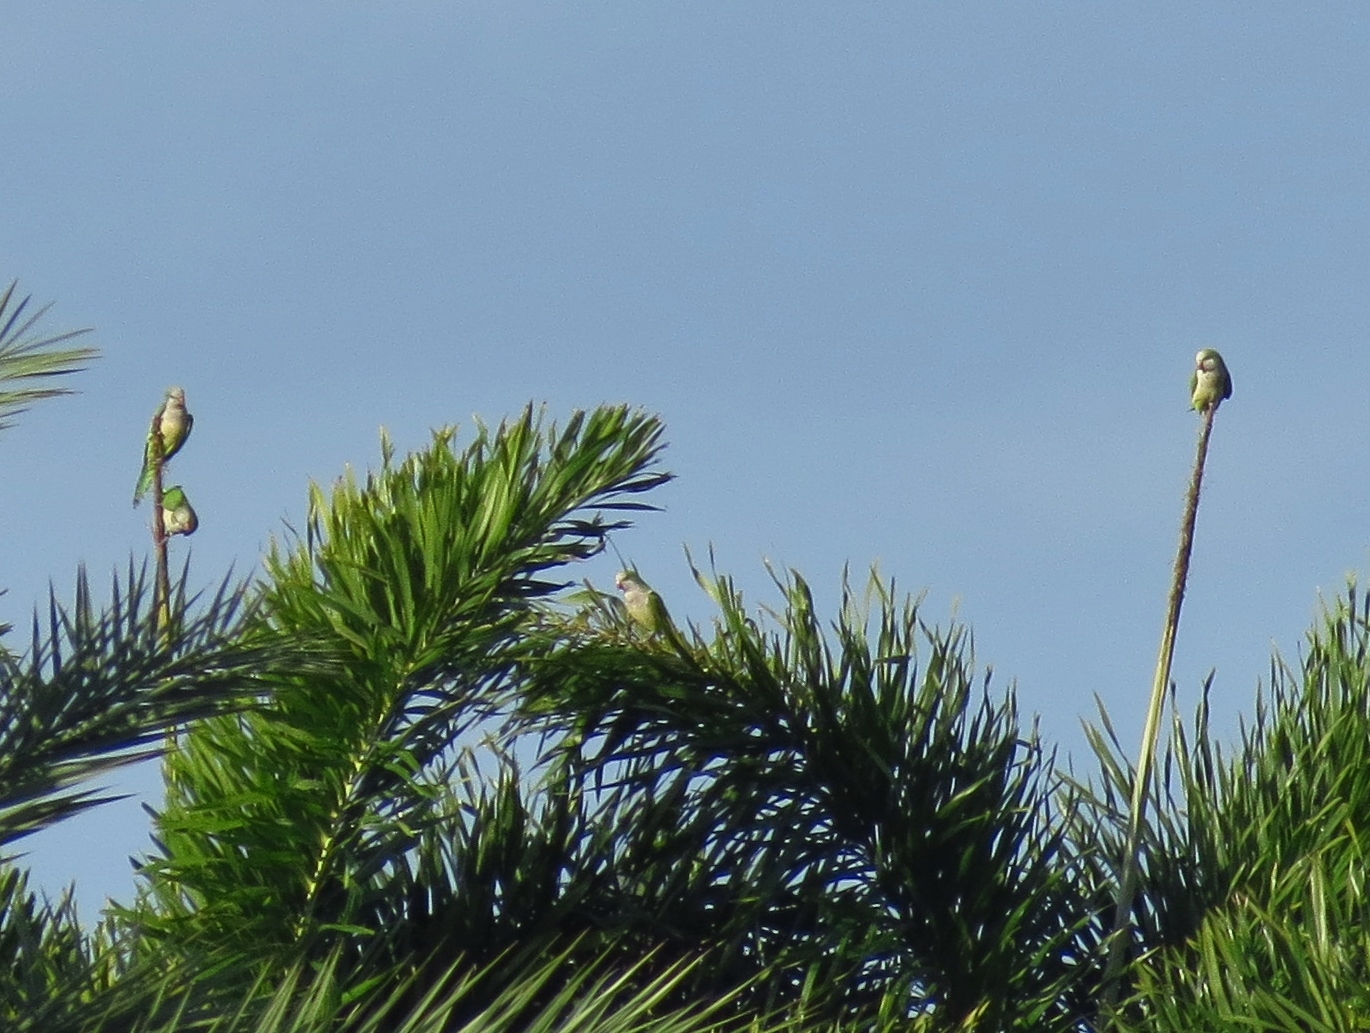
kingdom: Animalia
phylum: Chordata
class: Aves
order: Psittaciformes
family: Psittacidae
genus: Myiopsitta
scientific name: Myiopsitta monachus
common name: Monk parakeet
